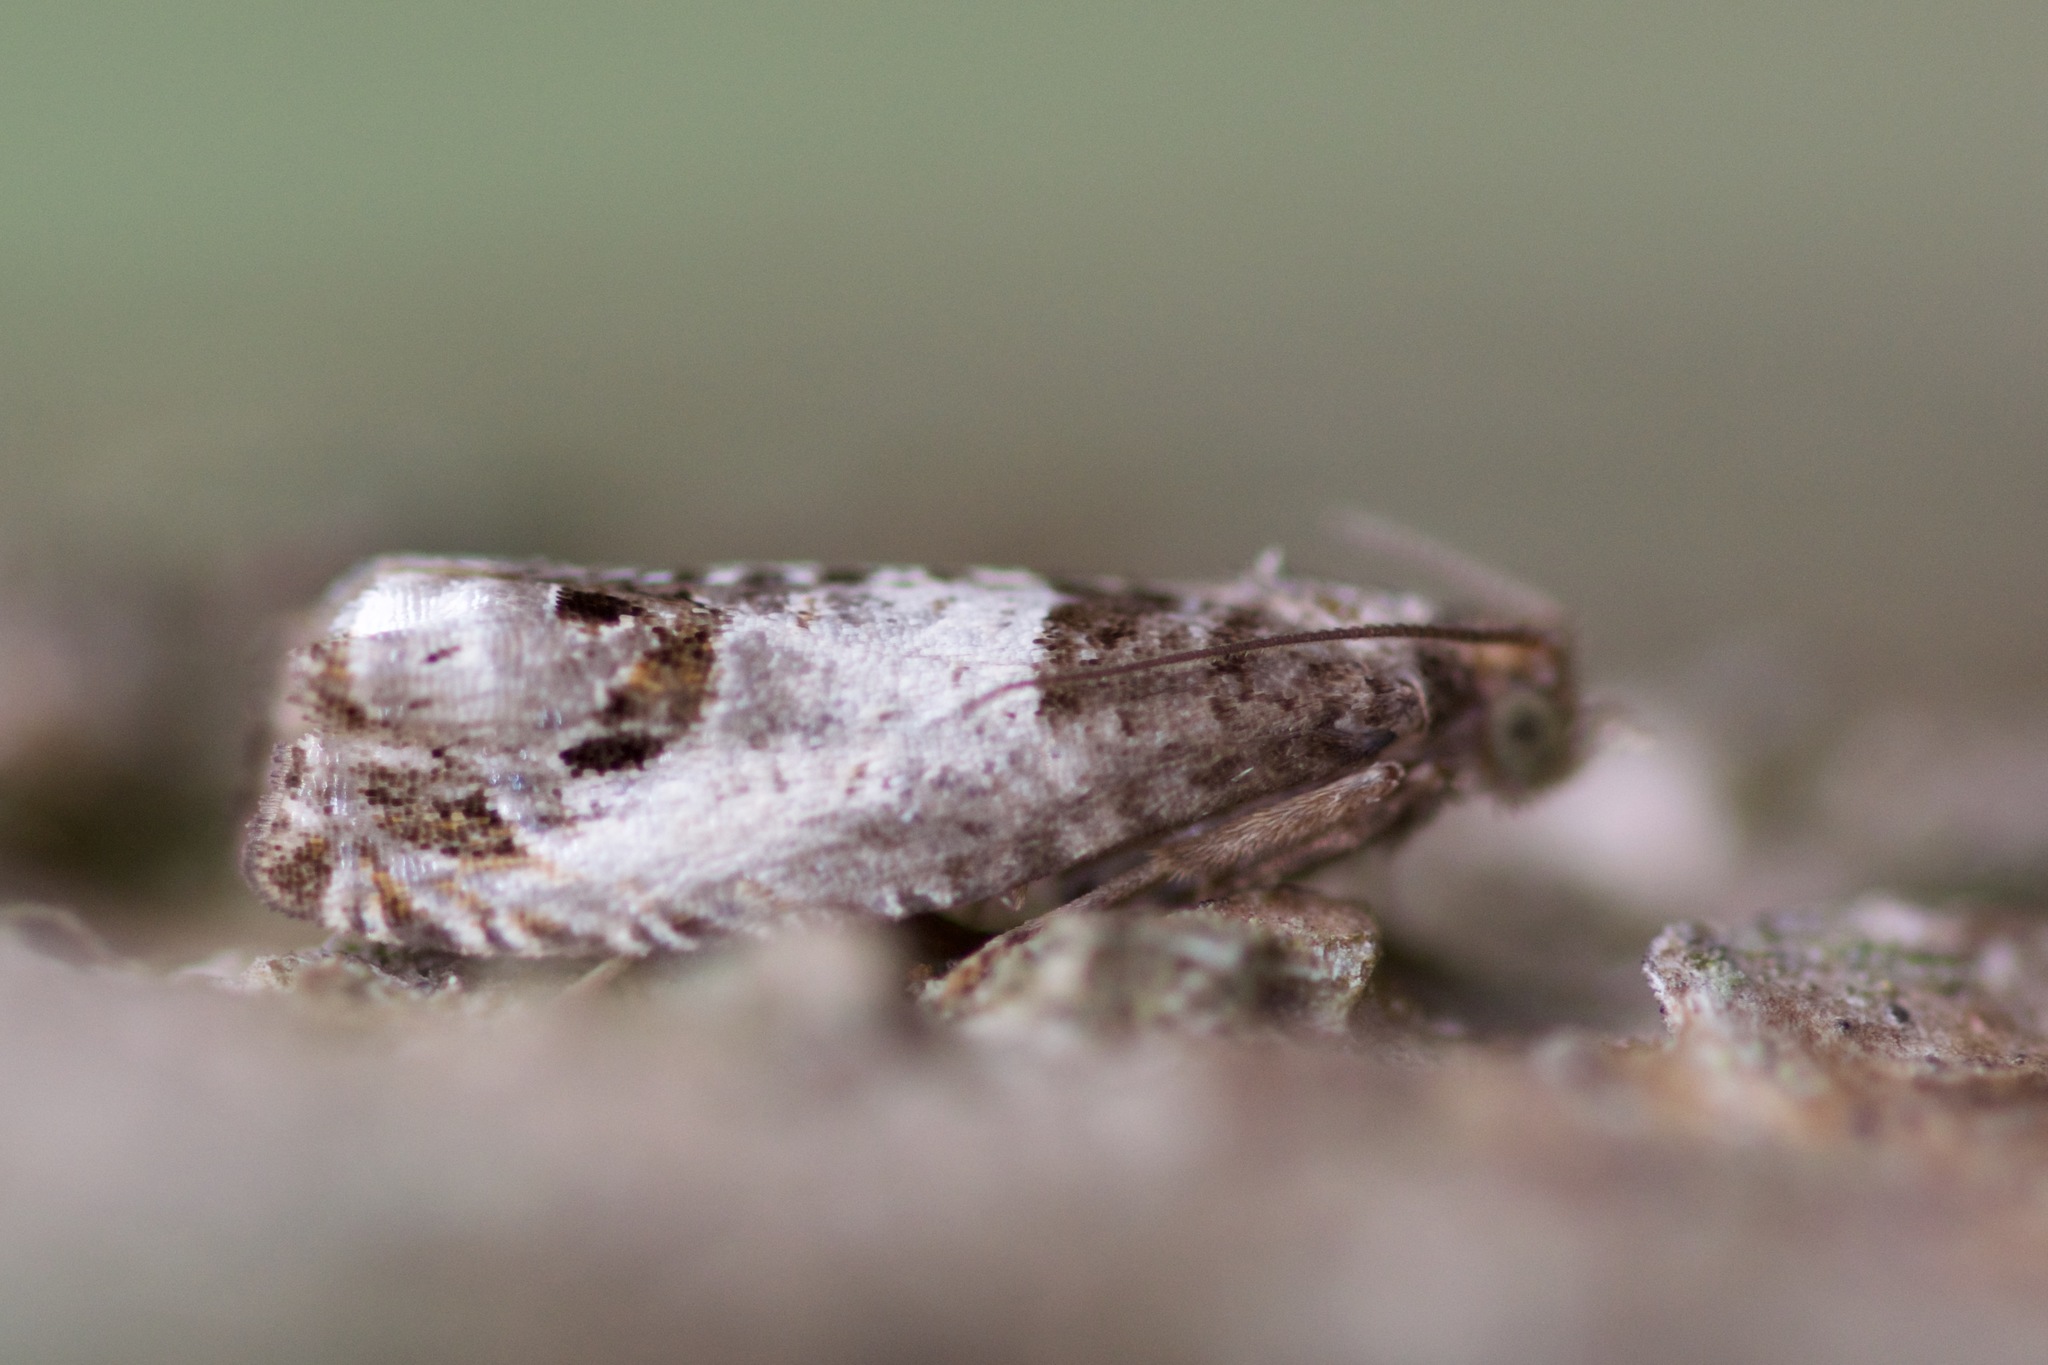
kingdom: Animalia
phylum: Arthropoda
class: Insecta
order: Lepidoptera
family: Tortricidae
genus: Notocelia
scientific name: Notocelia rosaecolana
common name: Common rose bell
